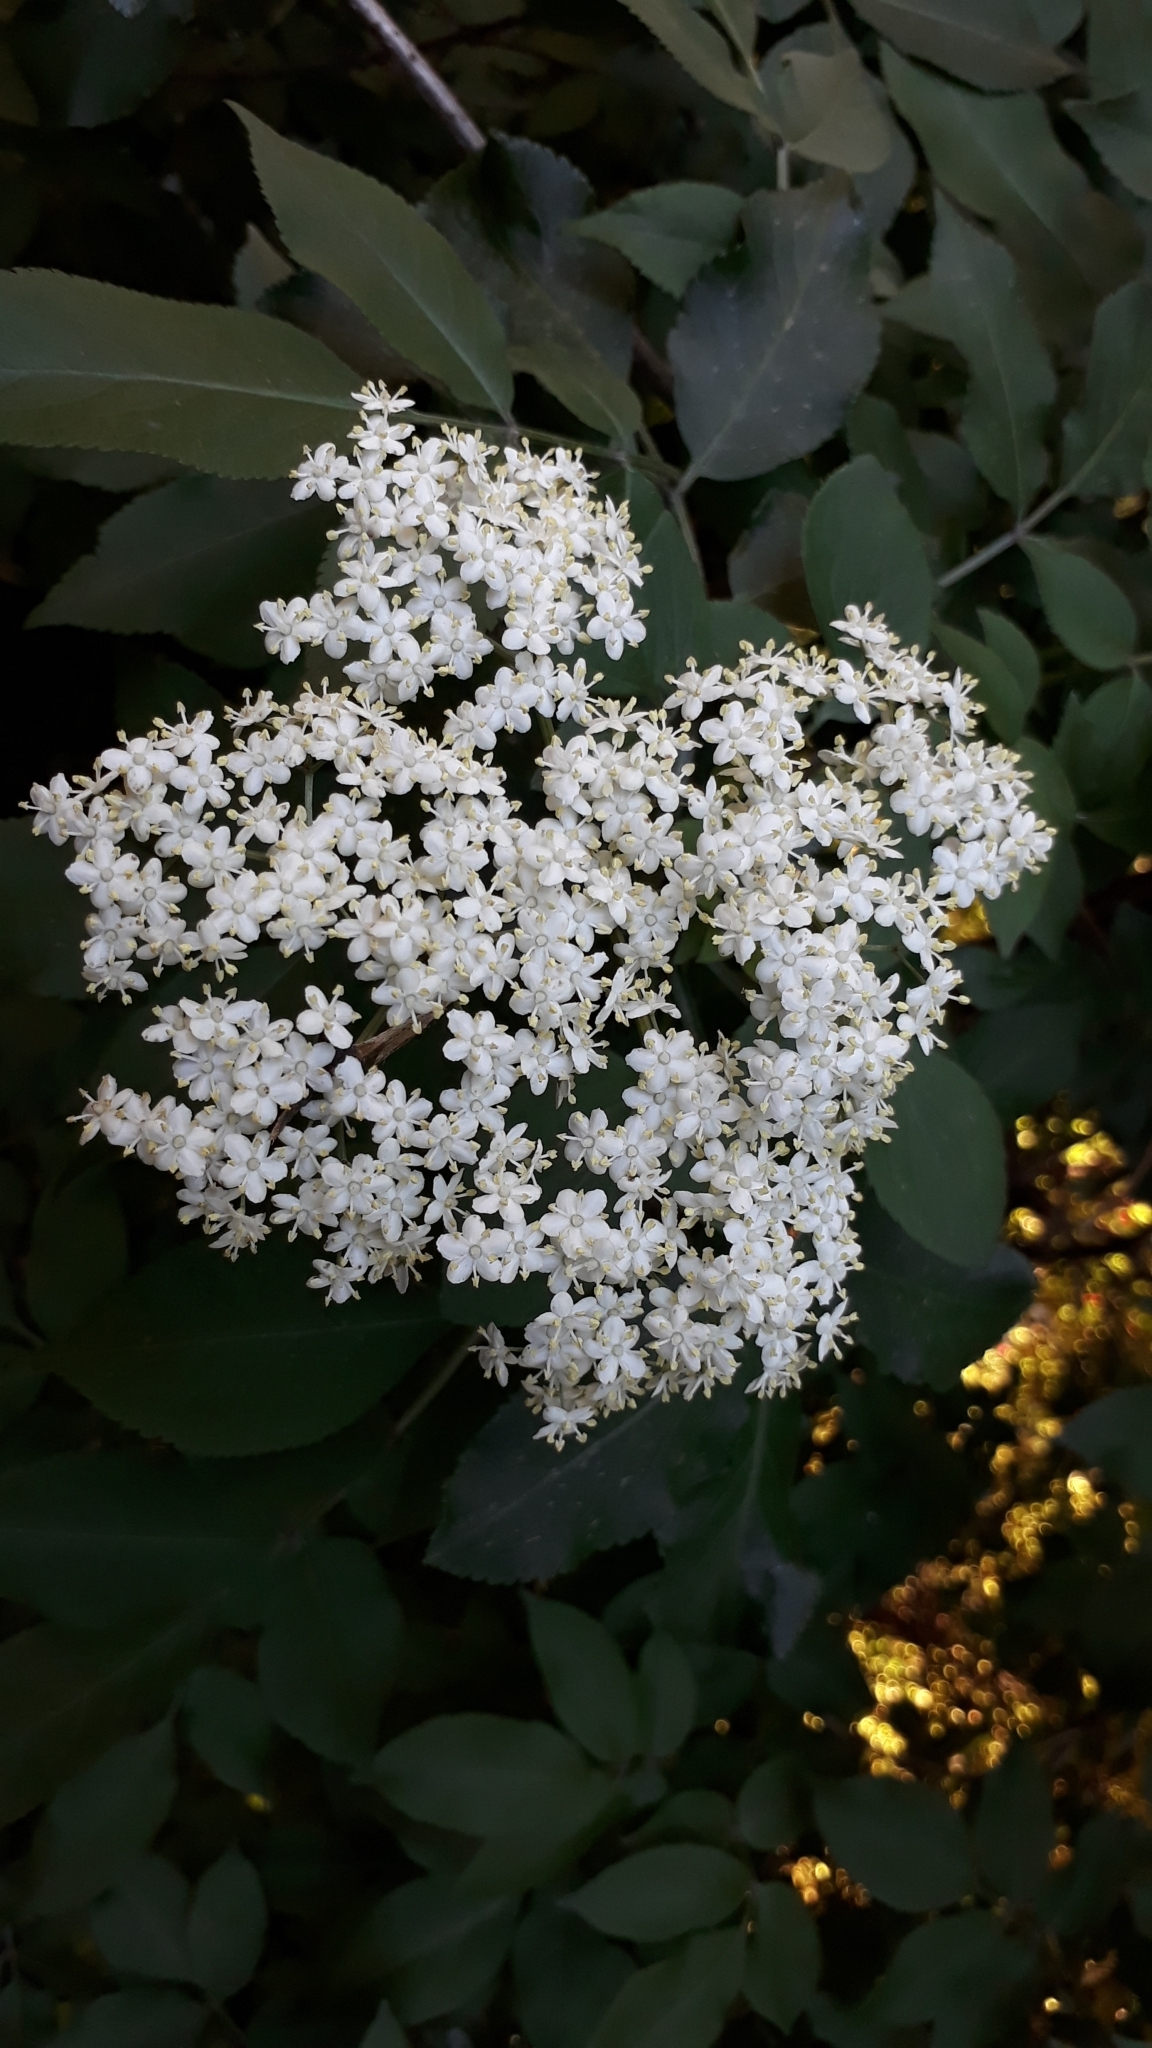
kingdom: Plantae
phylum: Tracheophyta
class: Magnoliopsida
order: Dipsacales
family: Viburnaceae
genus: Sambucus
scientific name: Sambucus nigra
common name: Elder
